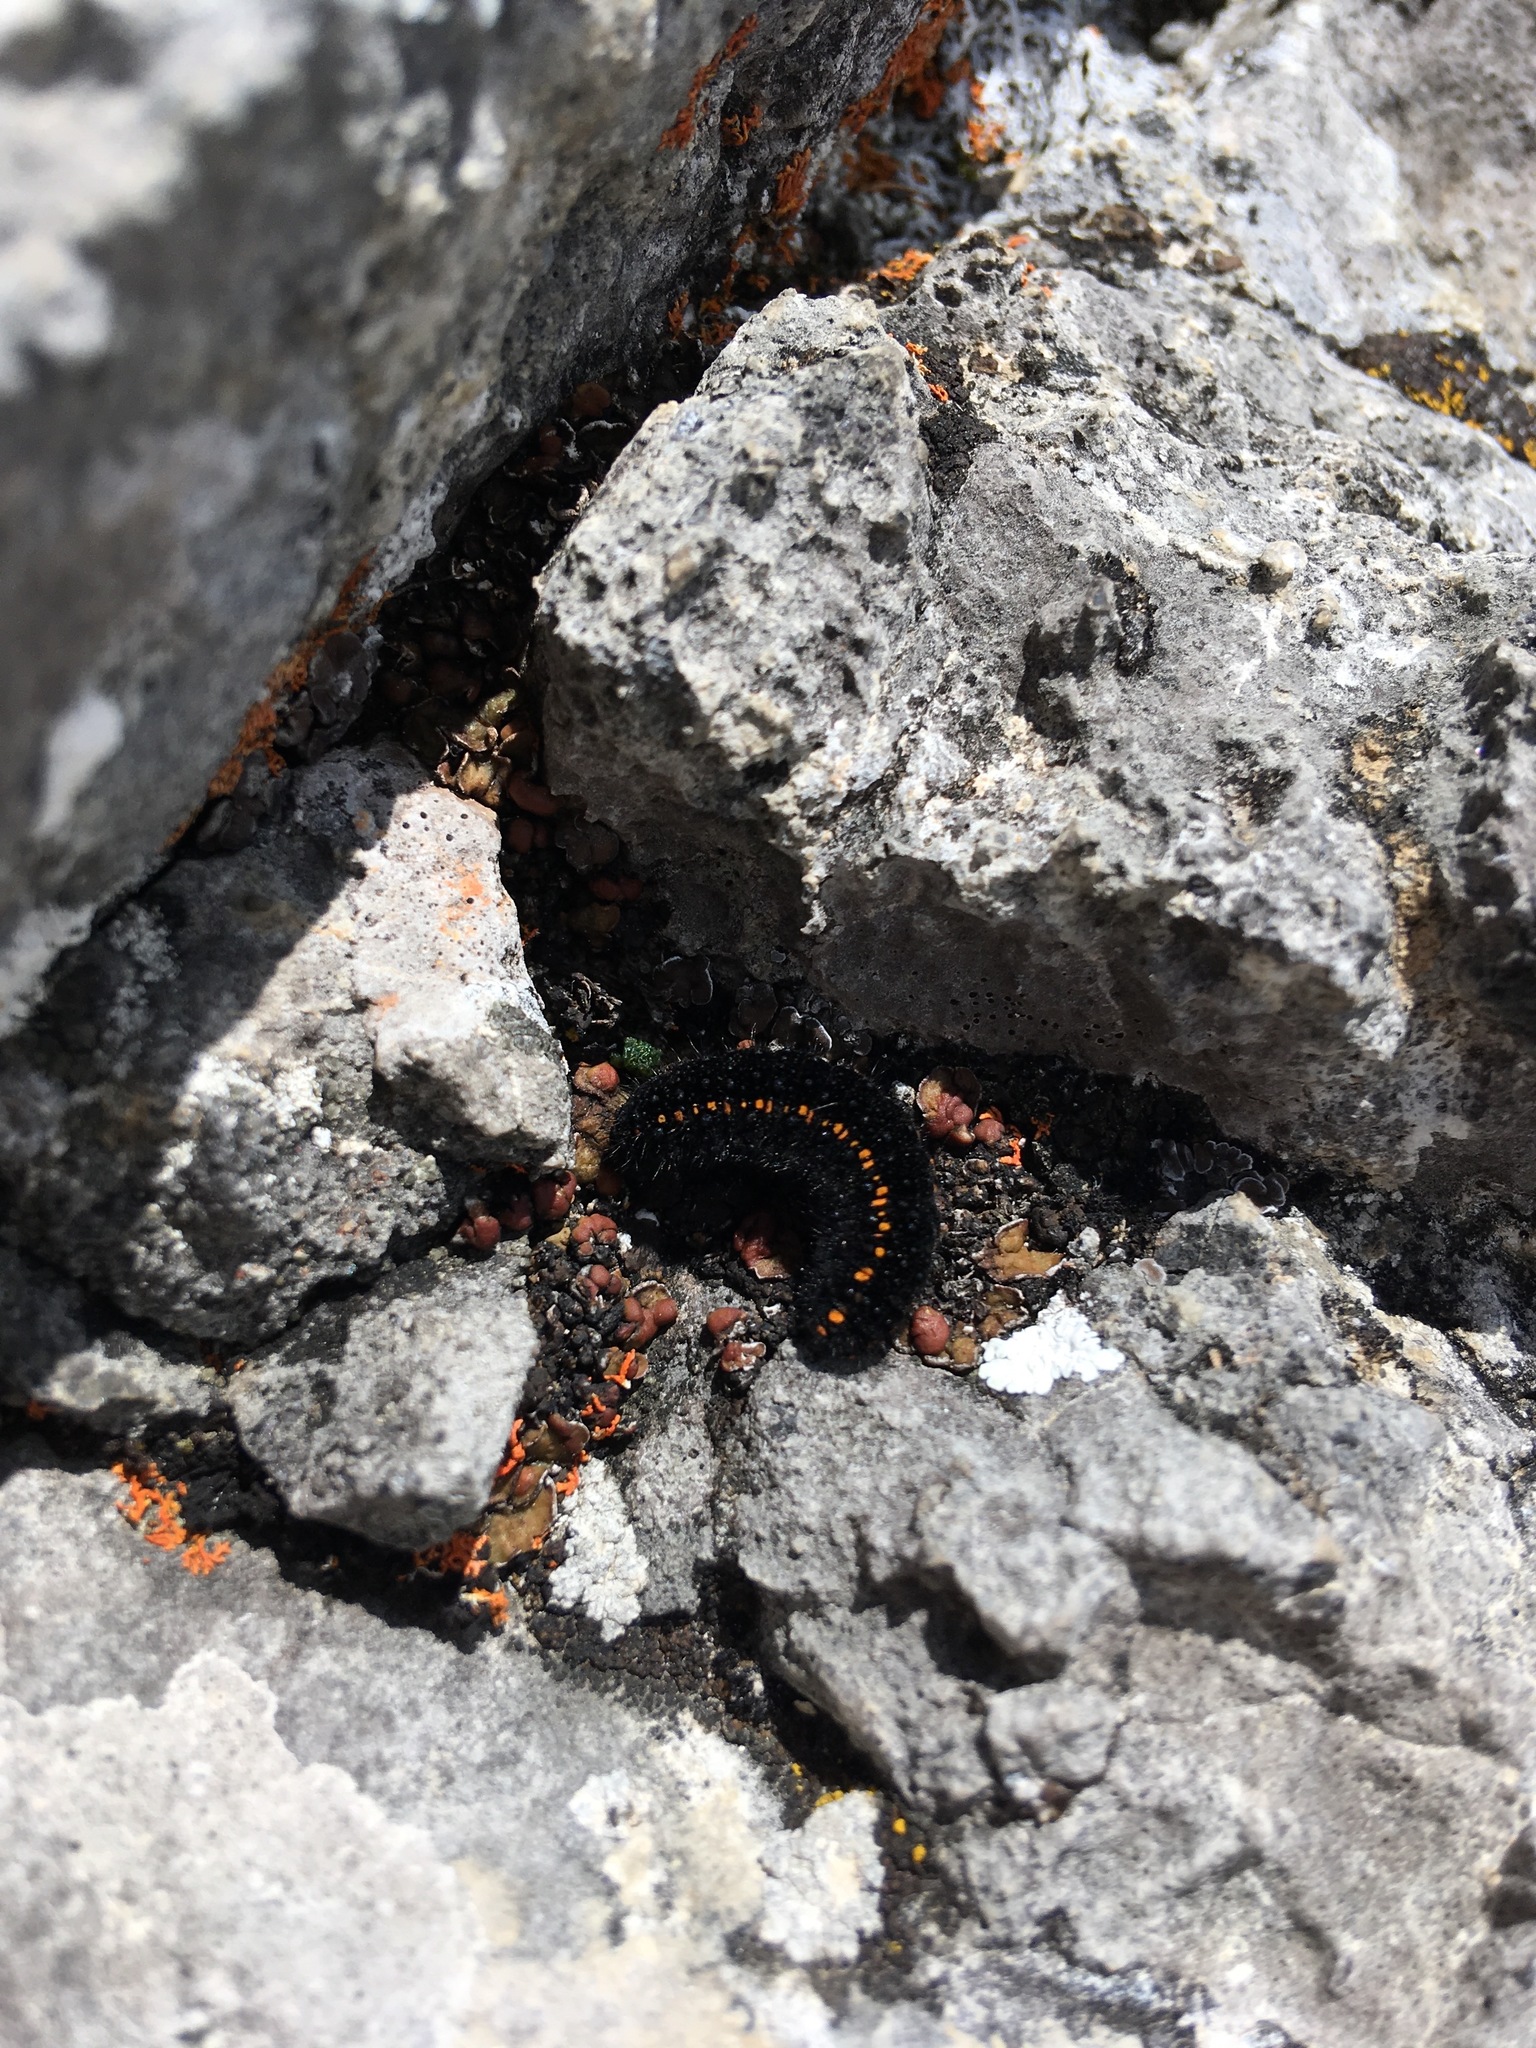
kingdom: Animalia
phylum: Arthropoda
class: Insecta
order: Lepidoptera
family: Papilionidae
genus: Parnassius
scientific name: Parnassius phoebus
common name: Small apollo
